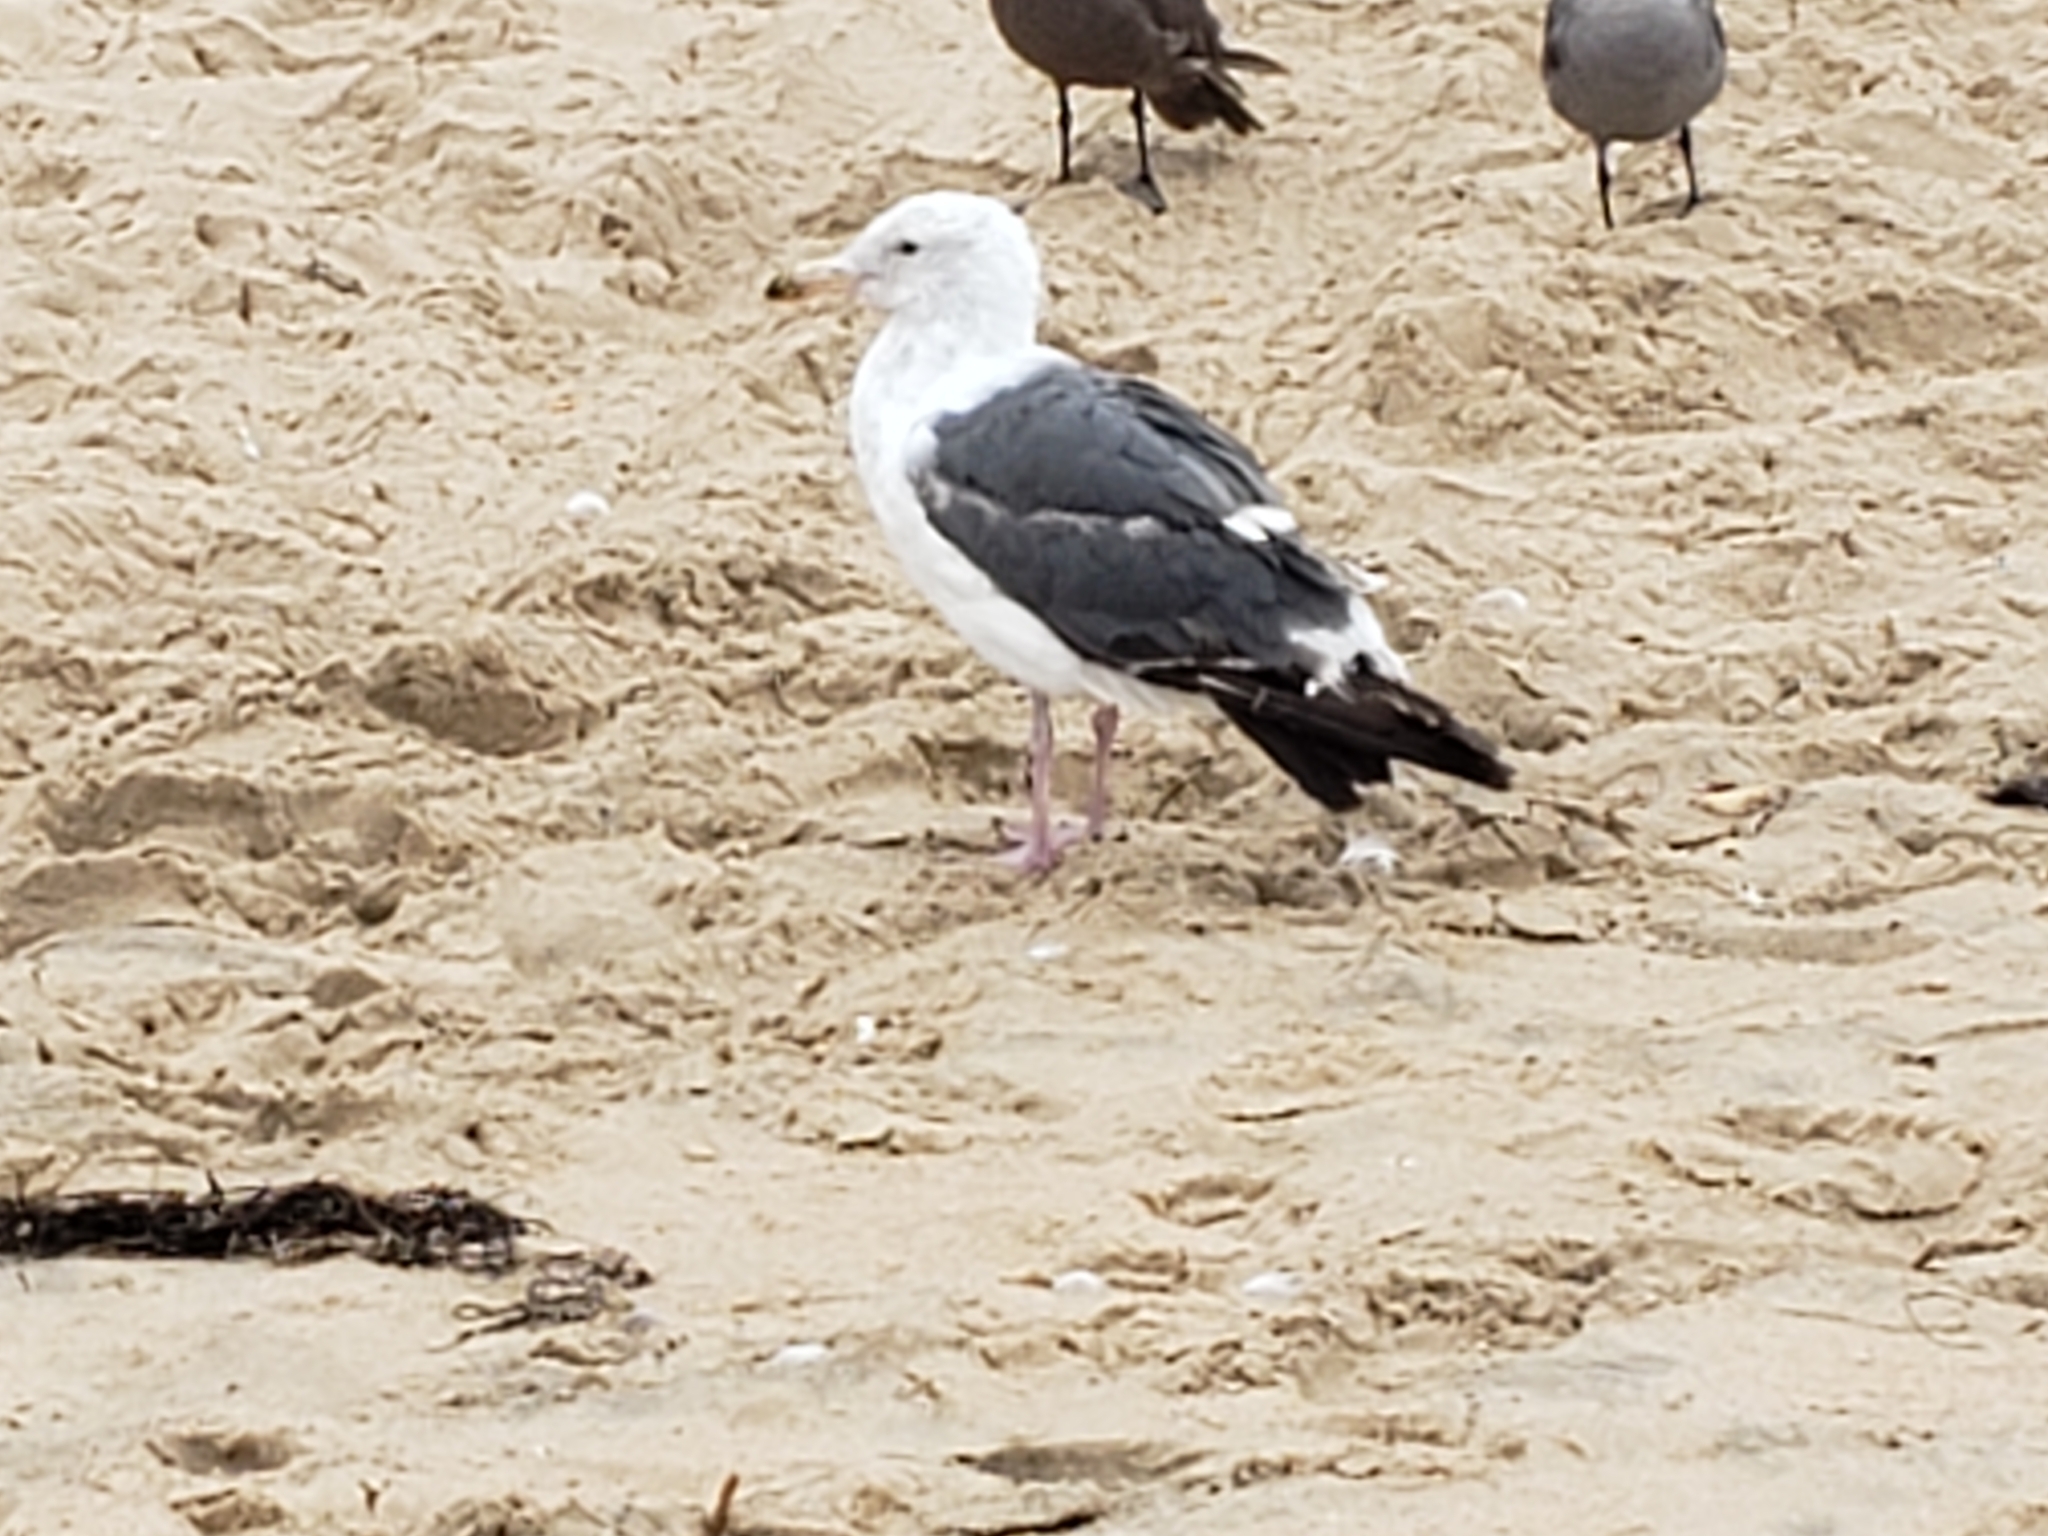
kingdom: Animalia
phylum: Chordata
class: Aves
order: Charadriiformes
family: Laridae
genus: Larus
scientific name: Larus occidentalis
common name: Western gull
